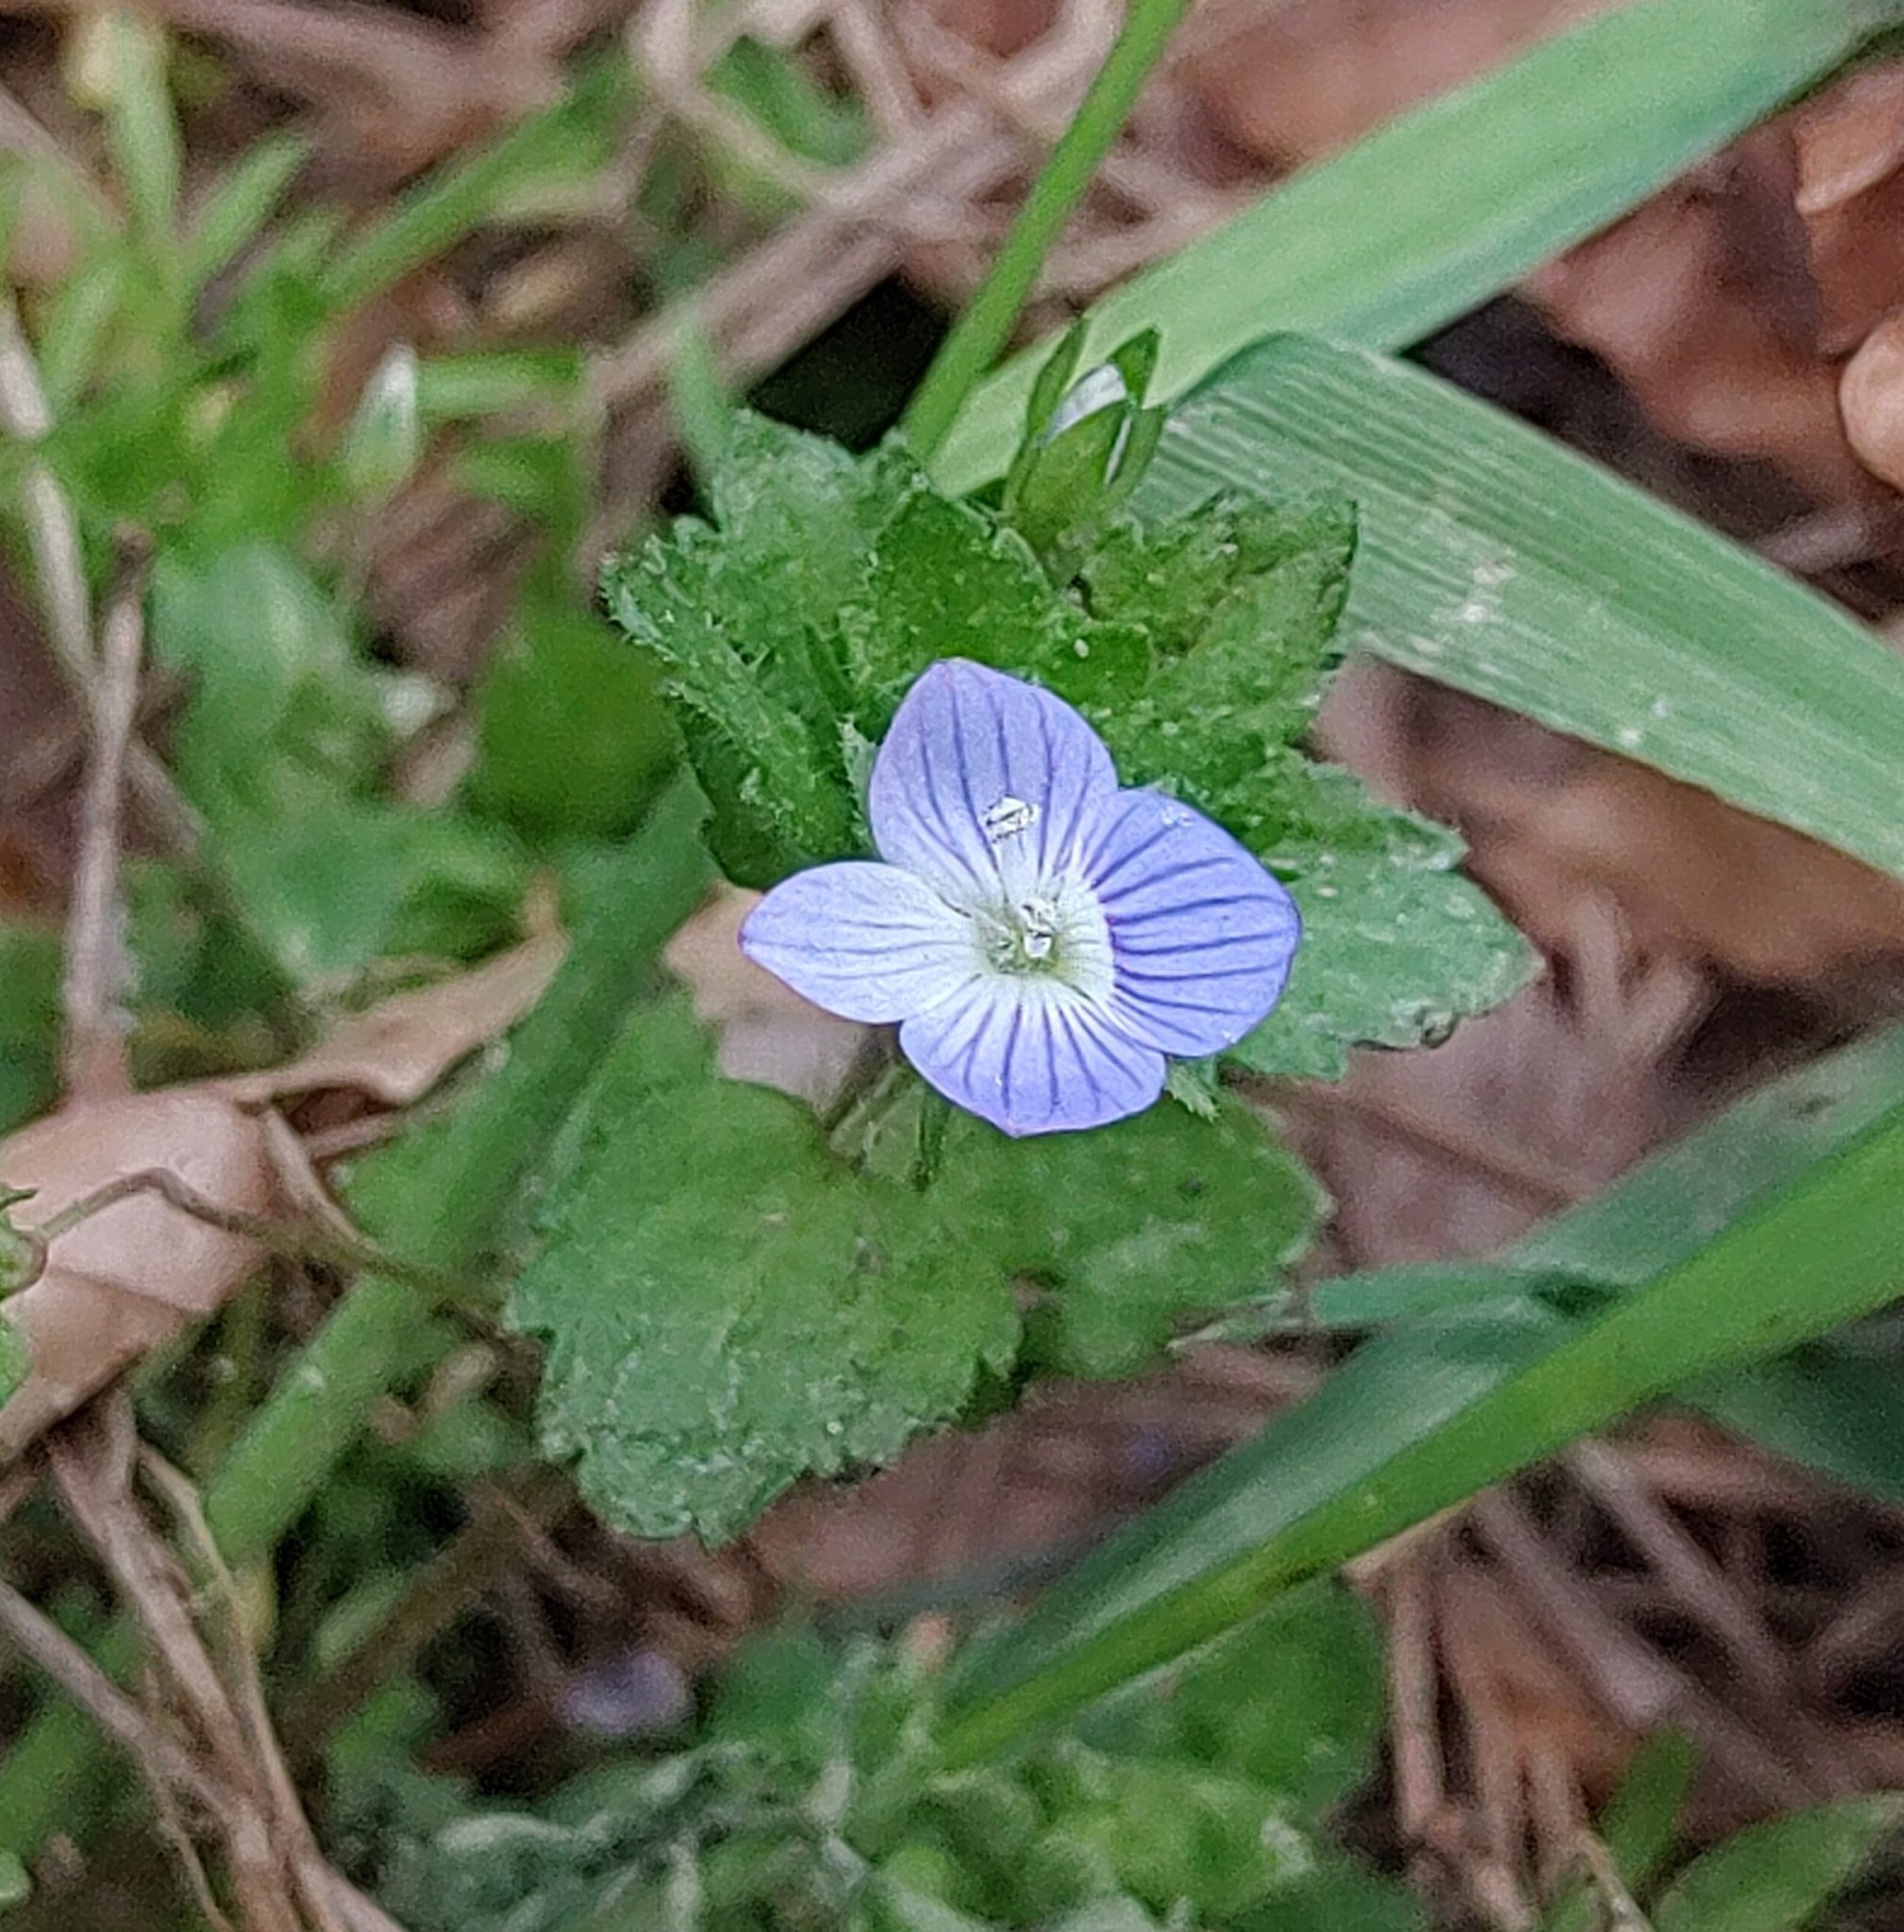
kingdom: Plantae
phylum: Tracheophyta
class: Magnoliopsida
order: Lamiales
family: Plantaginaceae
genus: Veronica
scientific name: Veronica persica
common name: Common field-speedwell
